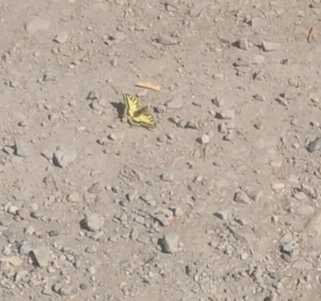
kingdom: Animalia
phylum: Arthropoda
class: Insecta
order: Lepidoptera
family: Papilionidae
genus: Papilio
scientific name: Papilio machaon
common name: Swallowtail
